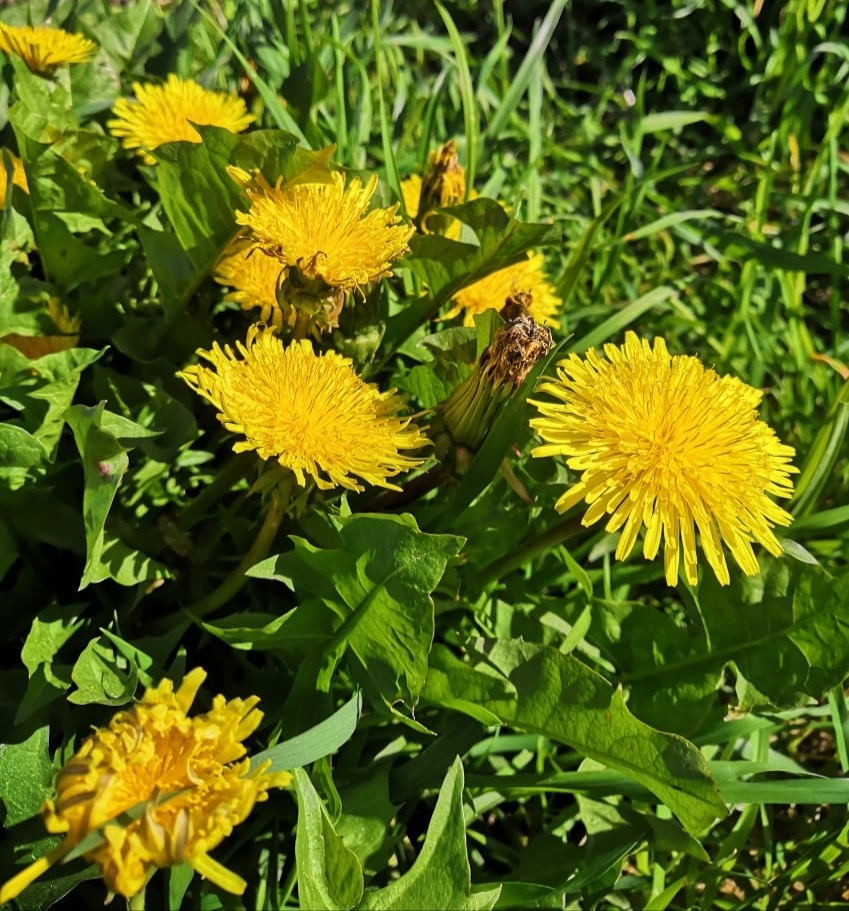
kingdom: Plantae
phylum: Tracheophyta
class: Magnoliopsida
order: Asterales
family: Asteraceae
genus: Taraxacum
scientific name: Taraxacum officinale
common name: Common dandelion
